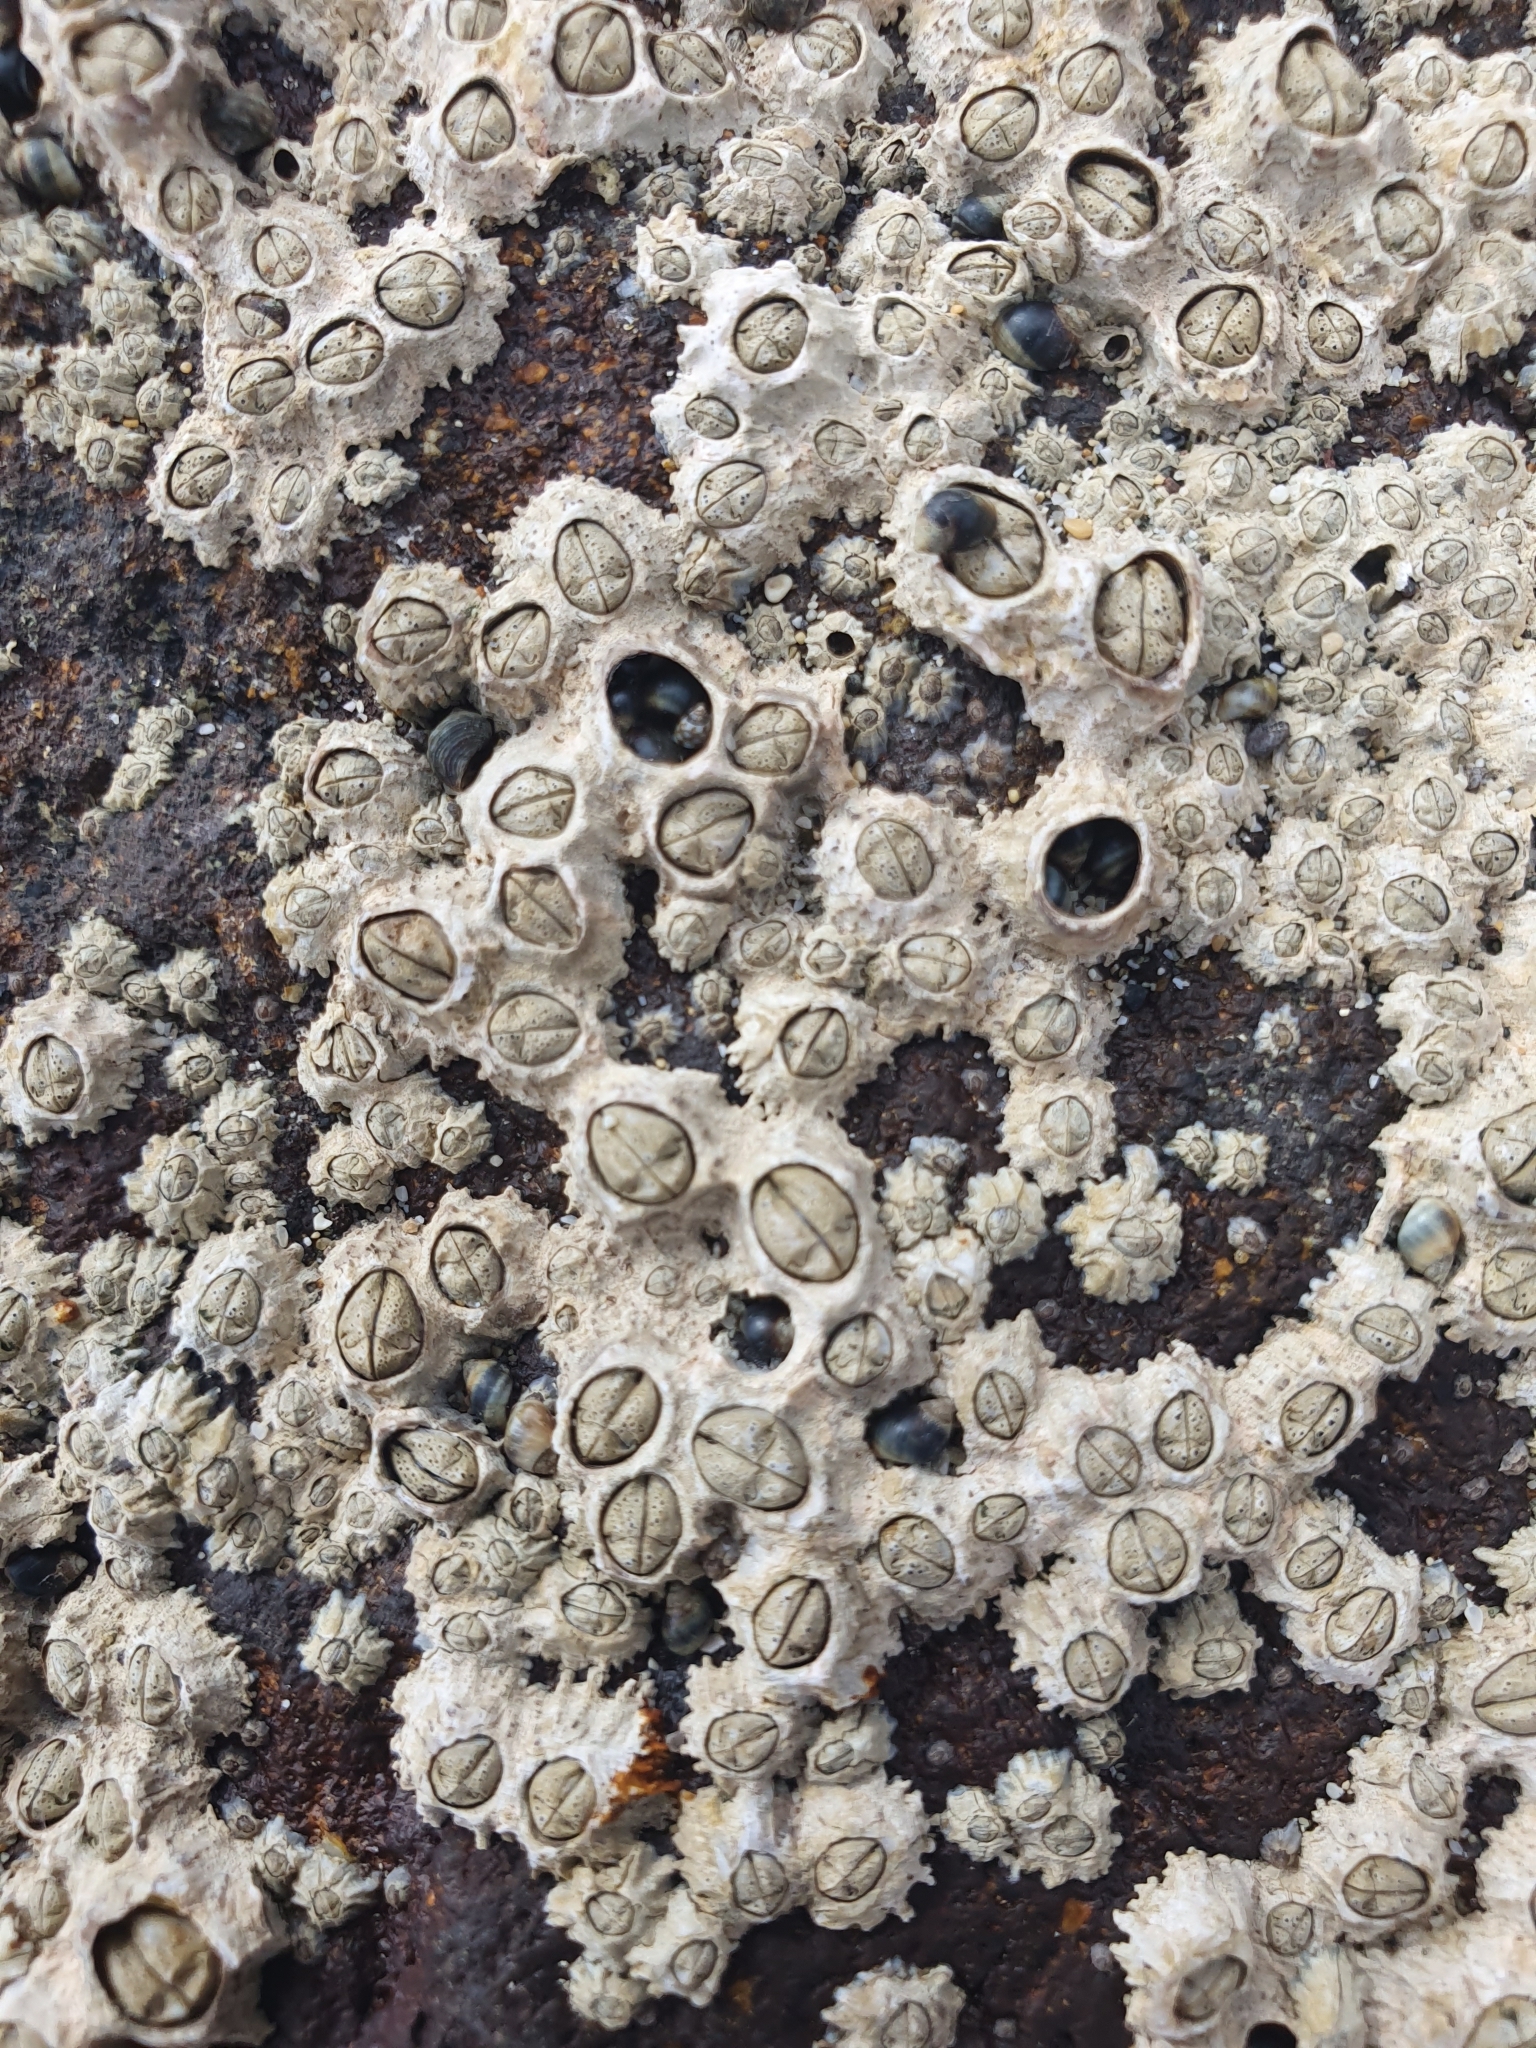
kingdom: Animalia
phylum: Arthropoda
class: Maxillopoda
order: Sessilia
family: Chthamalidae
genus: Chthamalus
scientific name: Chthamalus stellatus
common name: Poli's stellate barnacle
